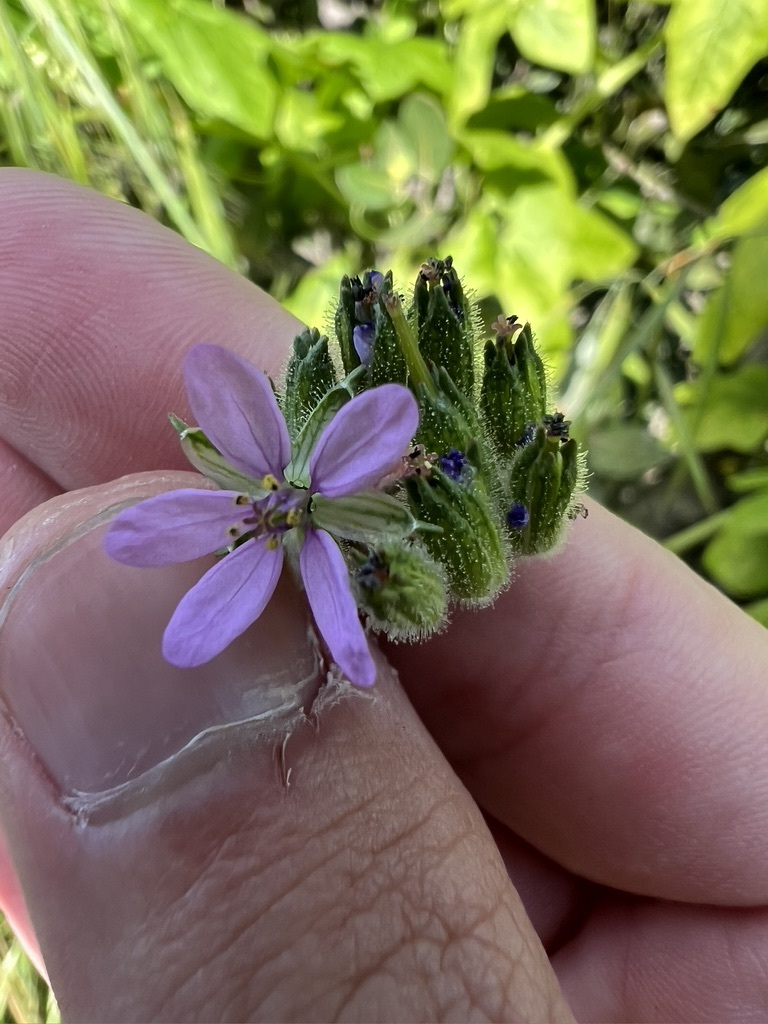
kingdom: Plantae
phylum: Tracheophyta
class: Magnoliopsida
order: Geraniales
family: Geraniaceae
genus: Erodium
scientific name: Erodium moschatum
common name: Musk stork's-bill
